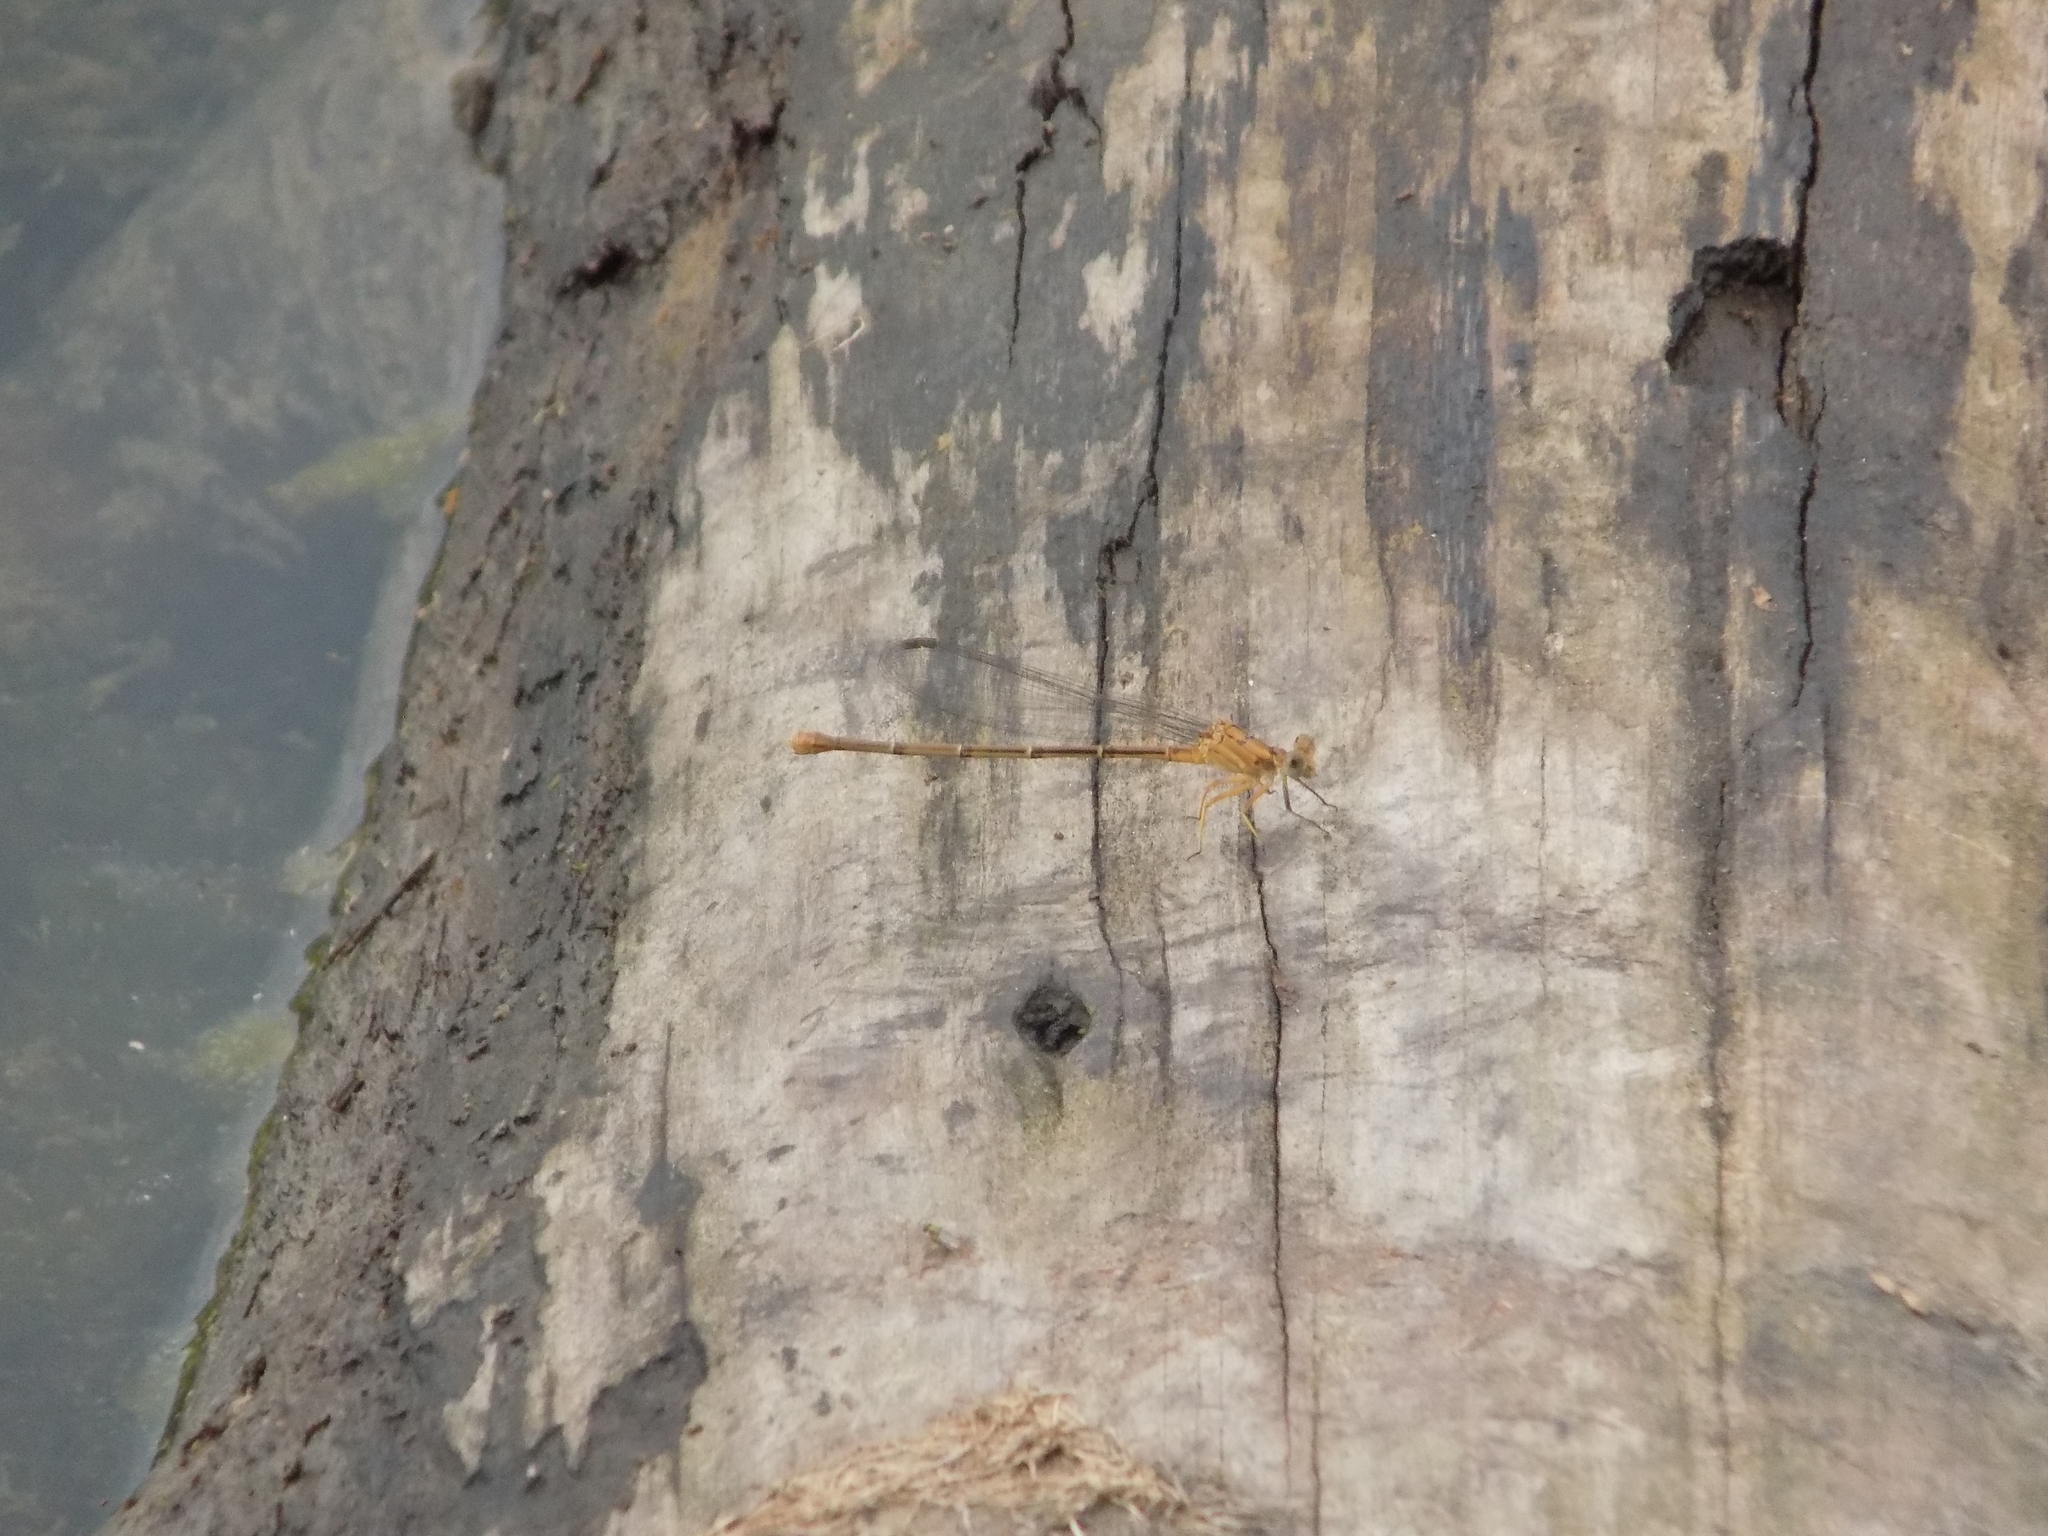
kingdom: Animalia
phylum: Arthropoda
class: Insecta
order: Odonata
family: Coenagrionidae
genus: Argia
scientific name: Argia moesta
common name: Powdered dancer
